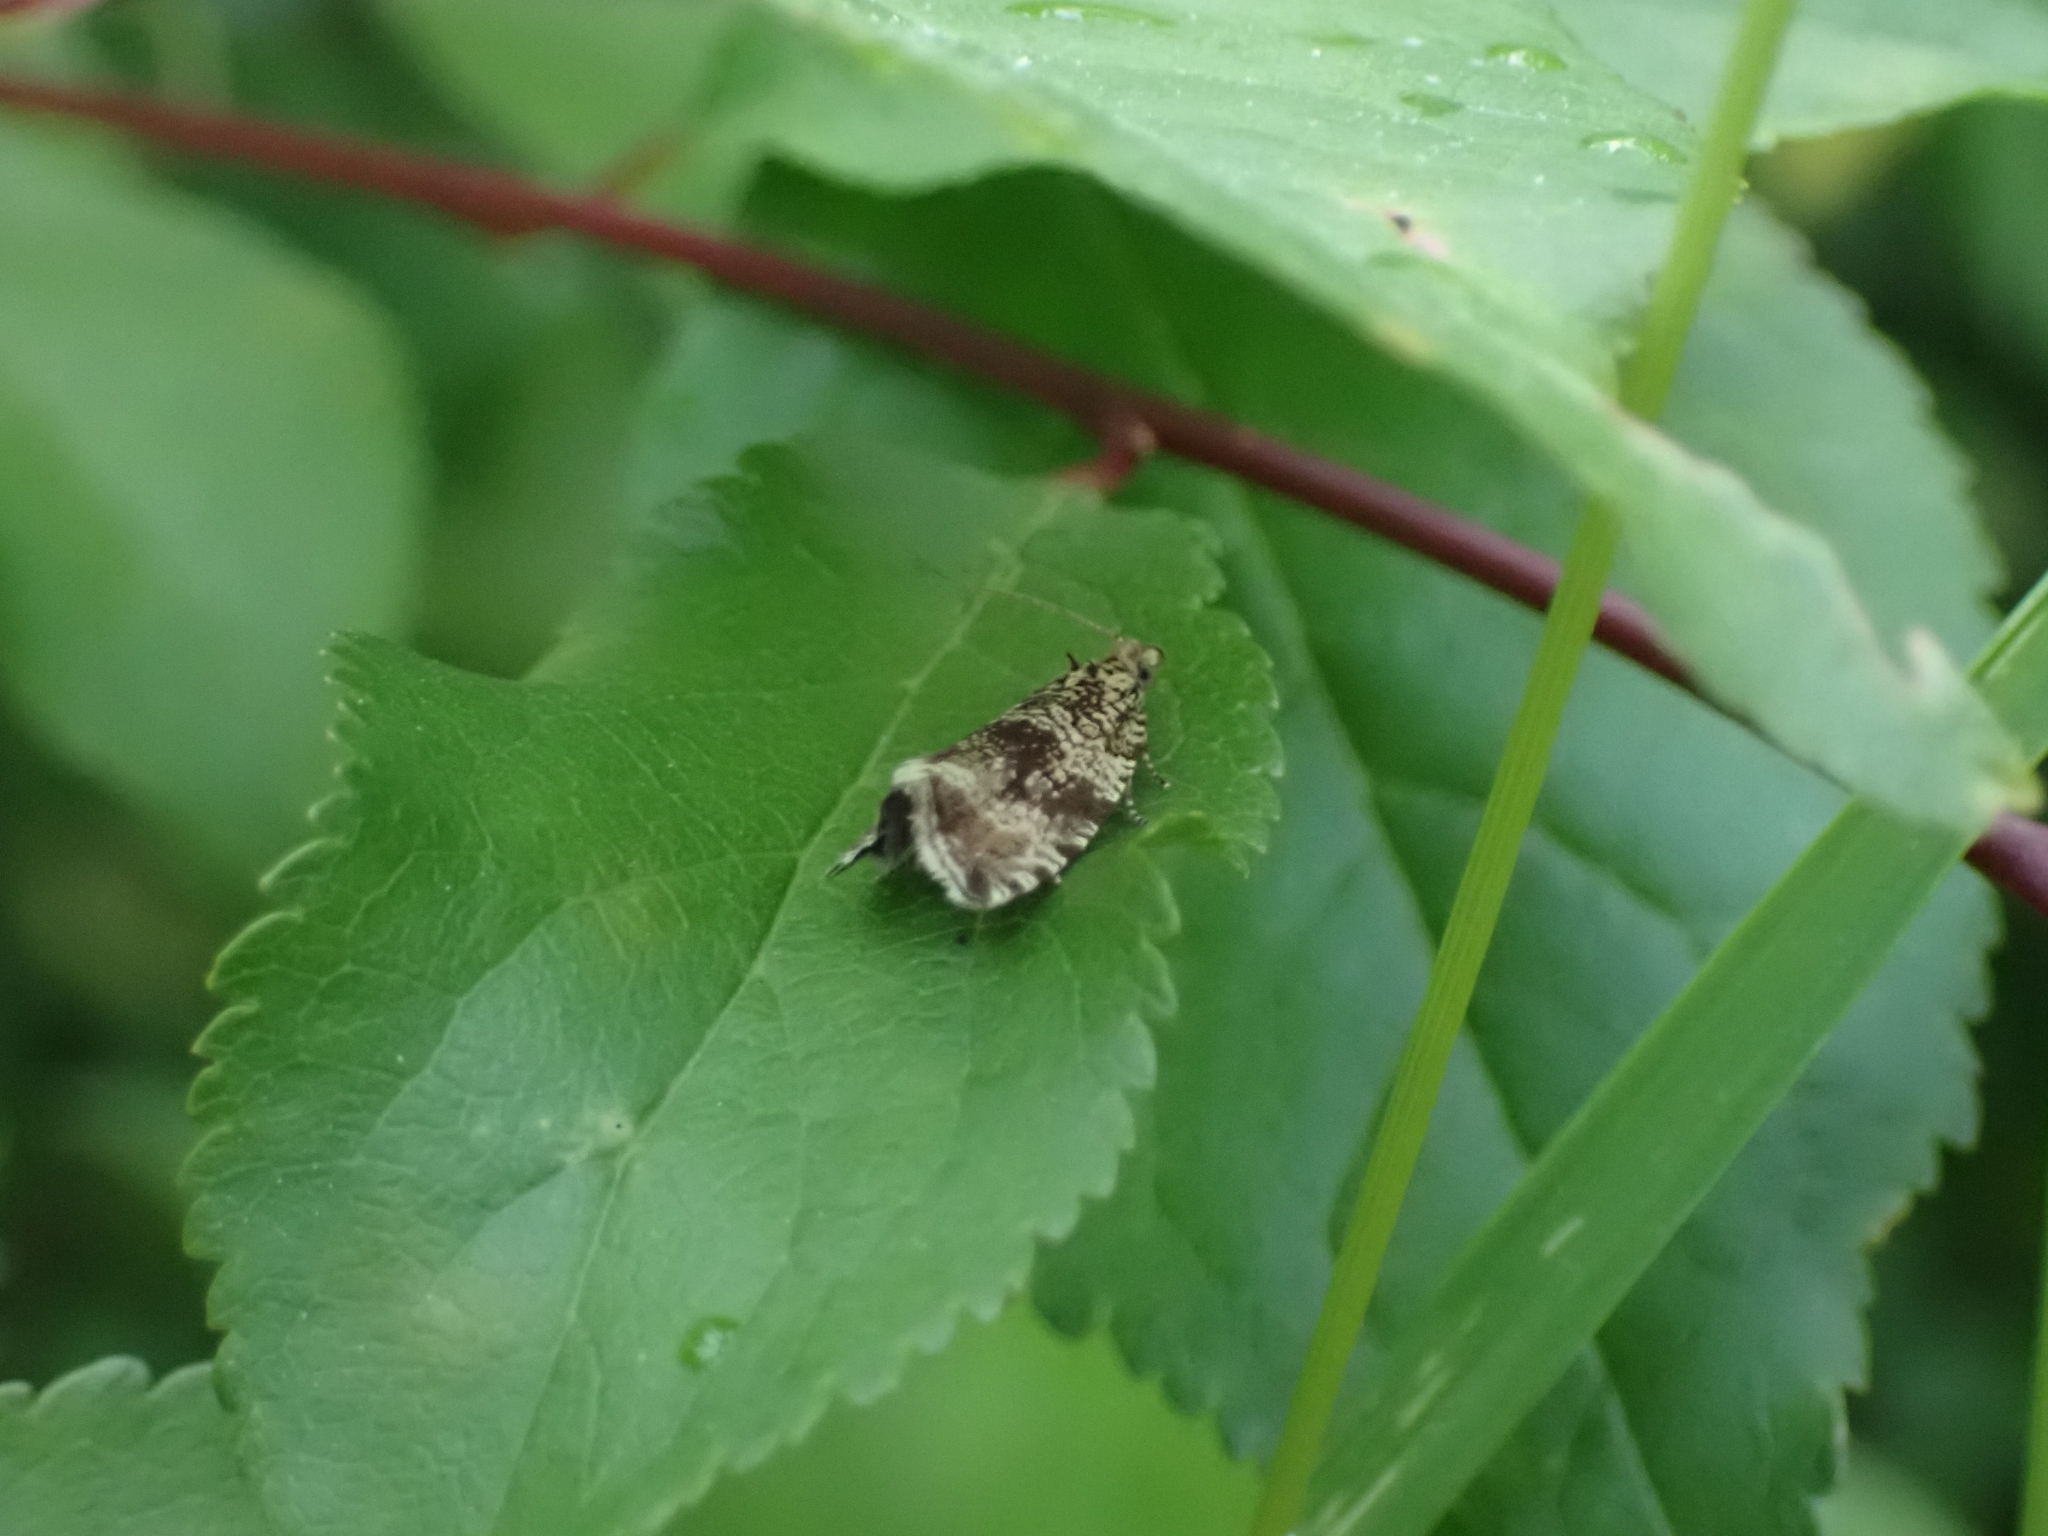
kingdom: Animalia
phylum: Arthropoda
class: Insecta
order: Lepidoptera
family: Tortricidae
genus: Syricoris
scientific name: Syricoris lacunana
